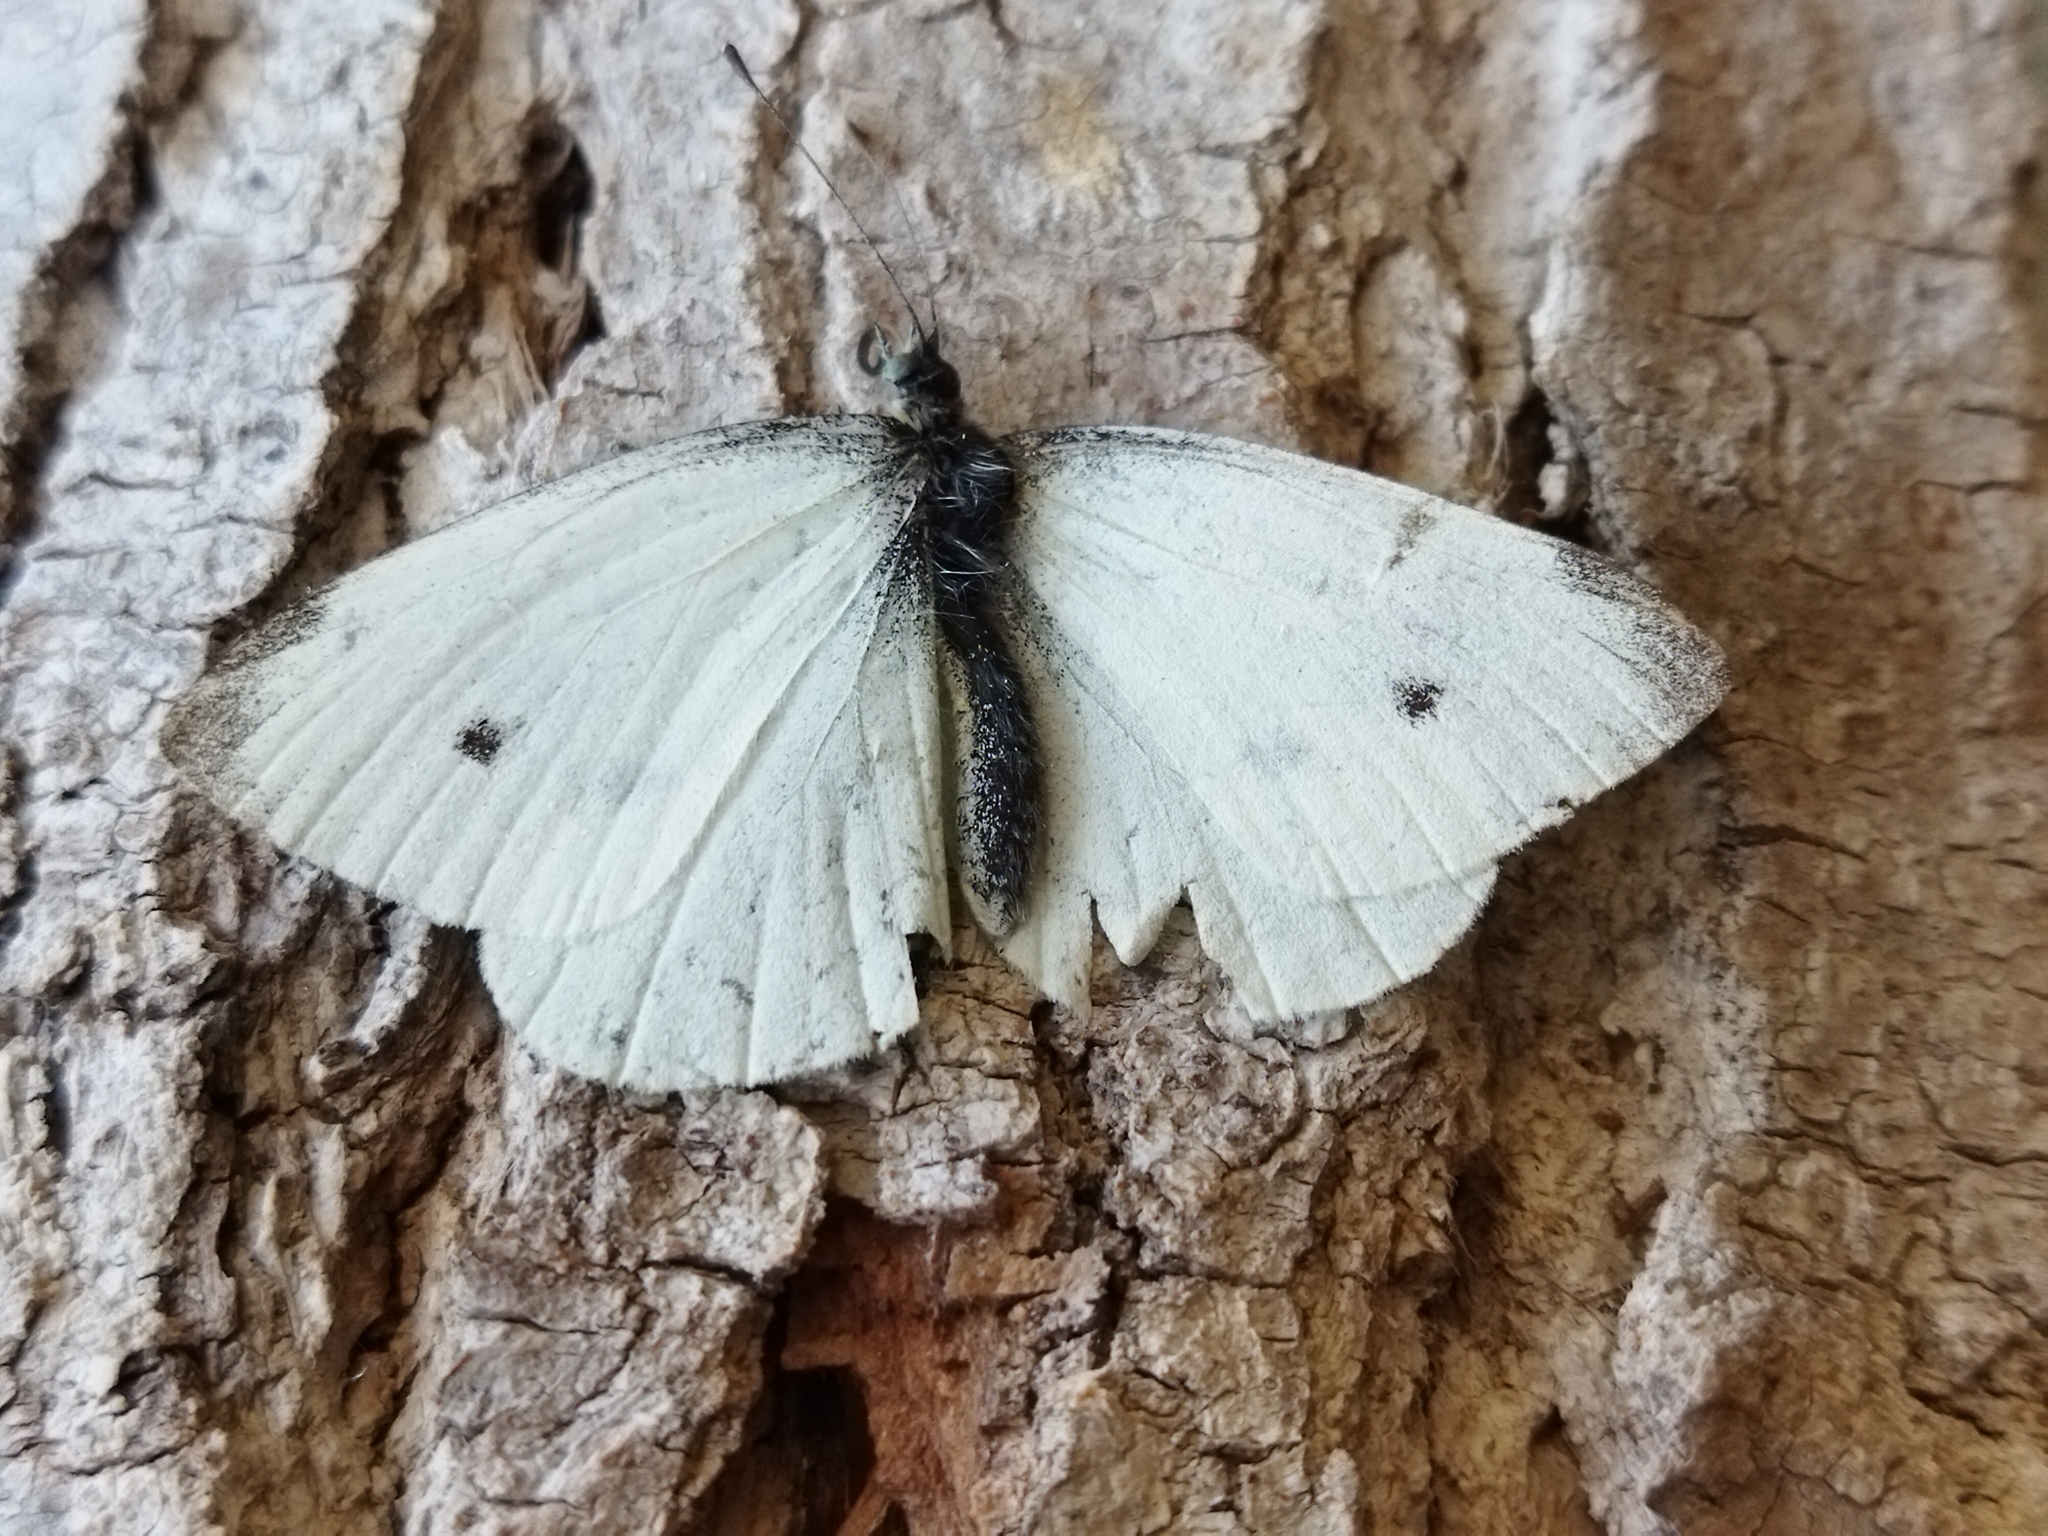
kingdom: Animalia
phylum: Arthropoda
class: Insecta
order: Lepidoptera
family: Pieridae
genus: Pieris
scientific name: Pieris rapae
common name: Small white
